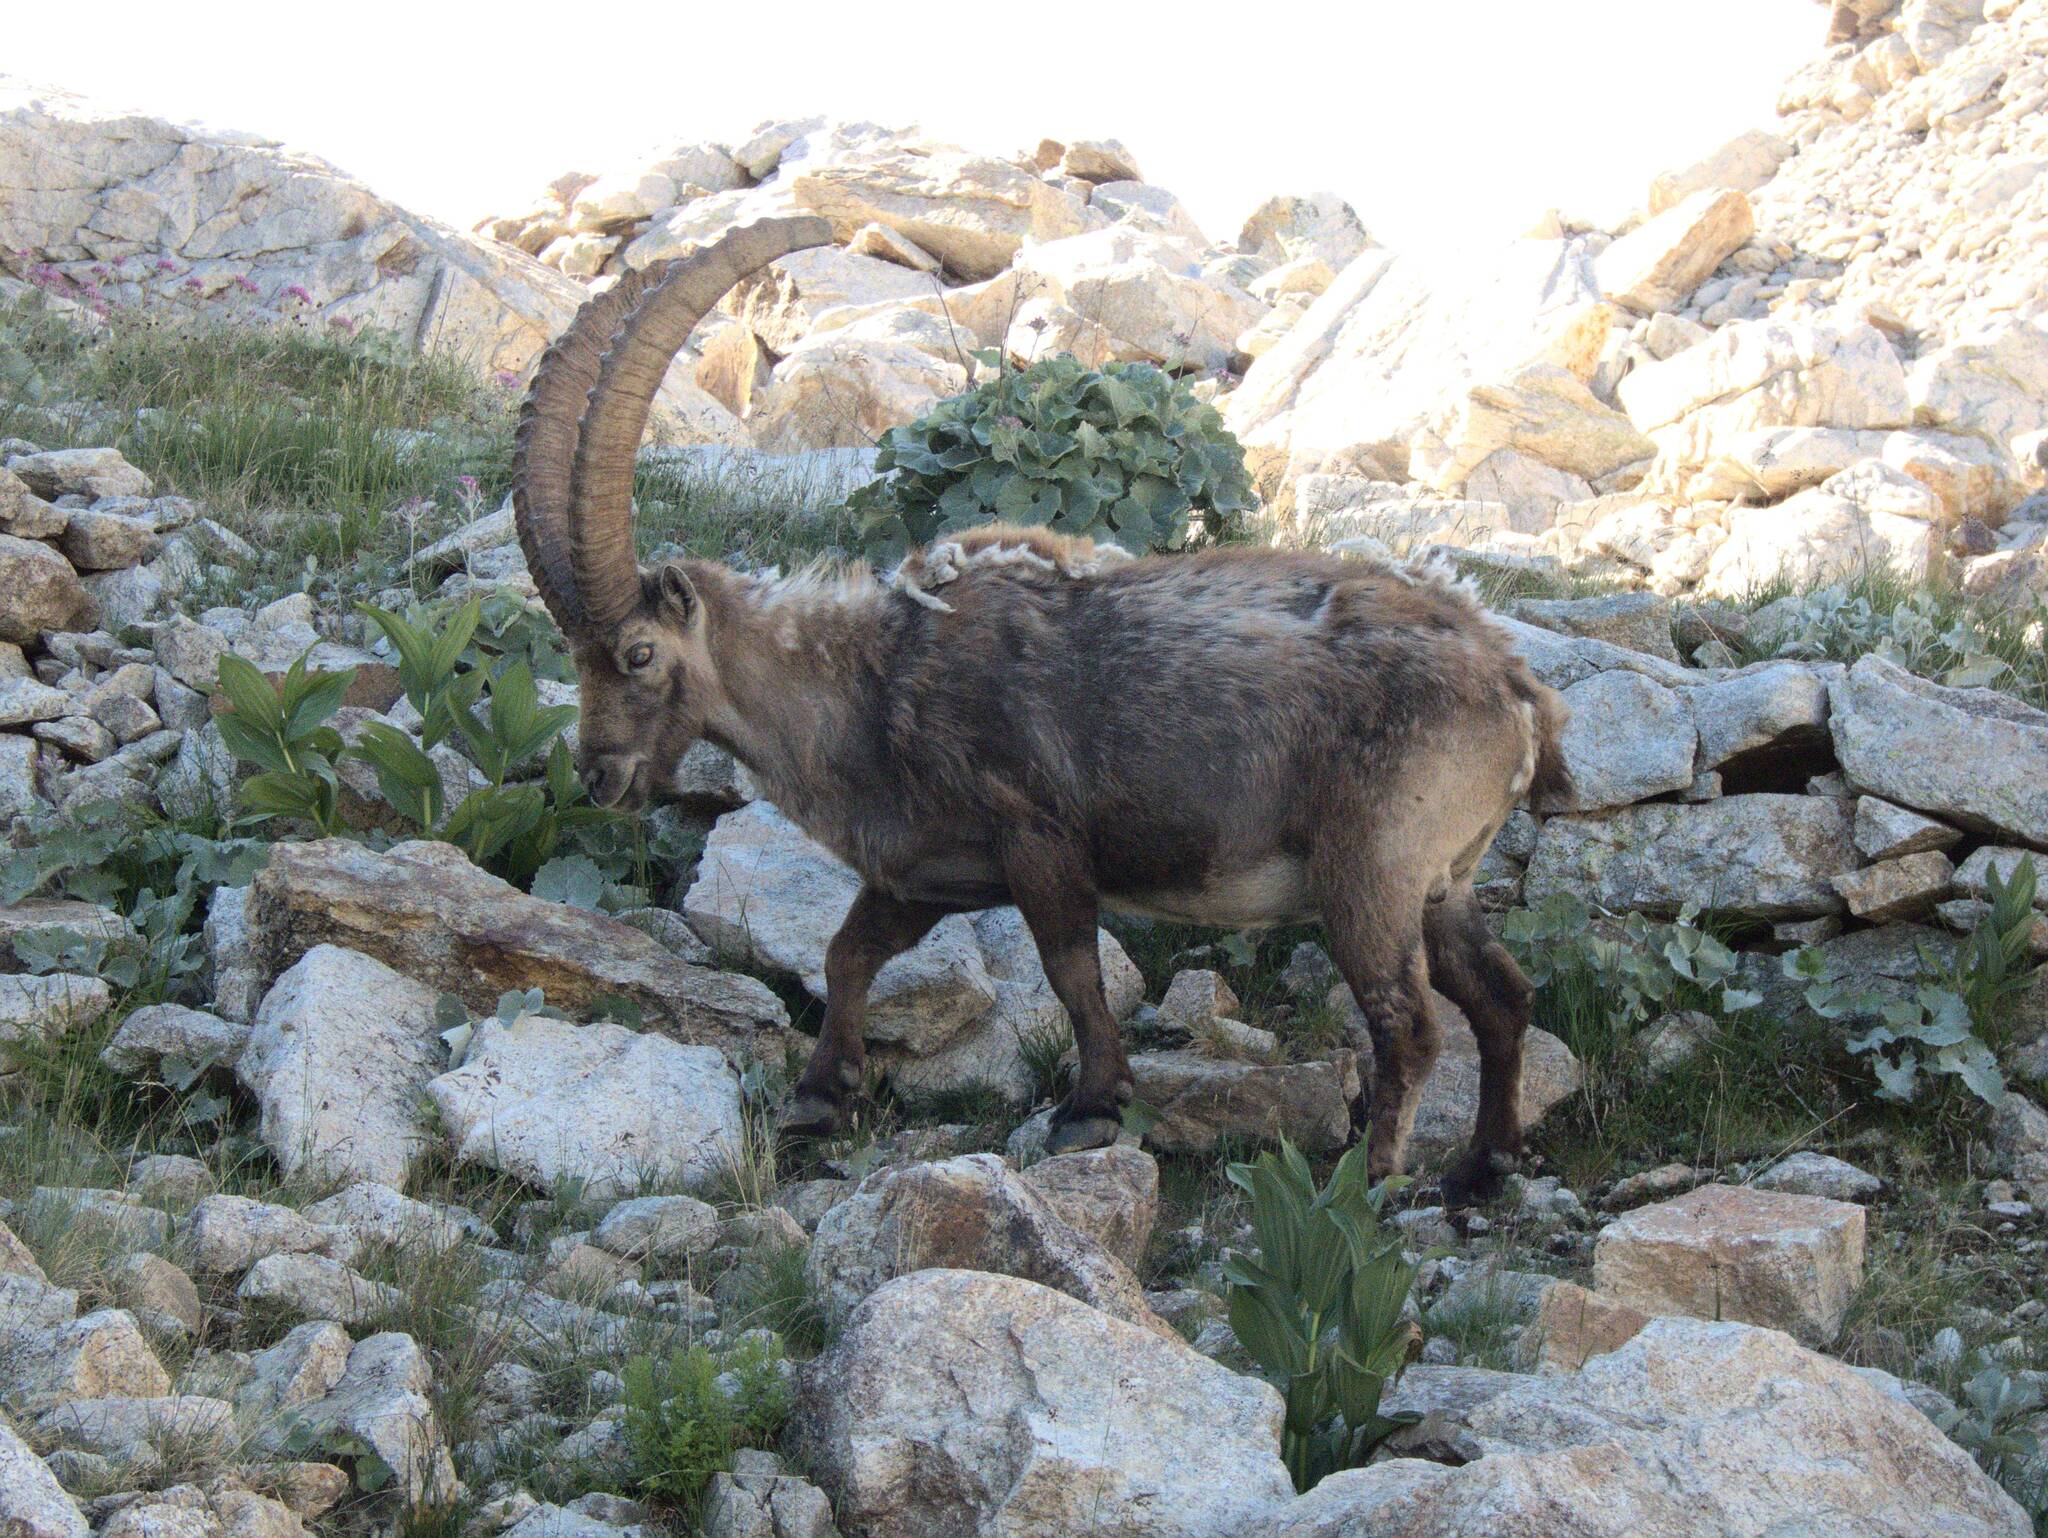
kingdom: Animalia
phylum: Chordata
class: Mammalia
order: Artiodactyla
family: Bovidae
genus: Capra
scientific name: Capra ibex
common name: Alpine ibex
